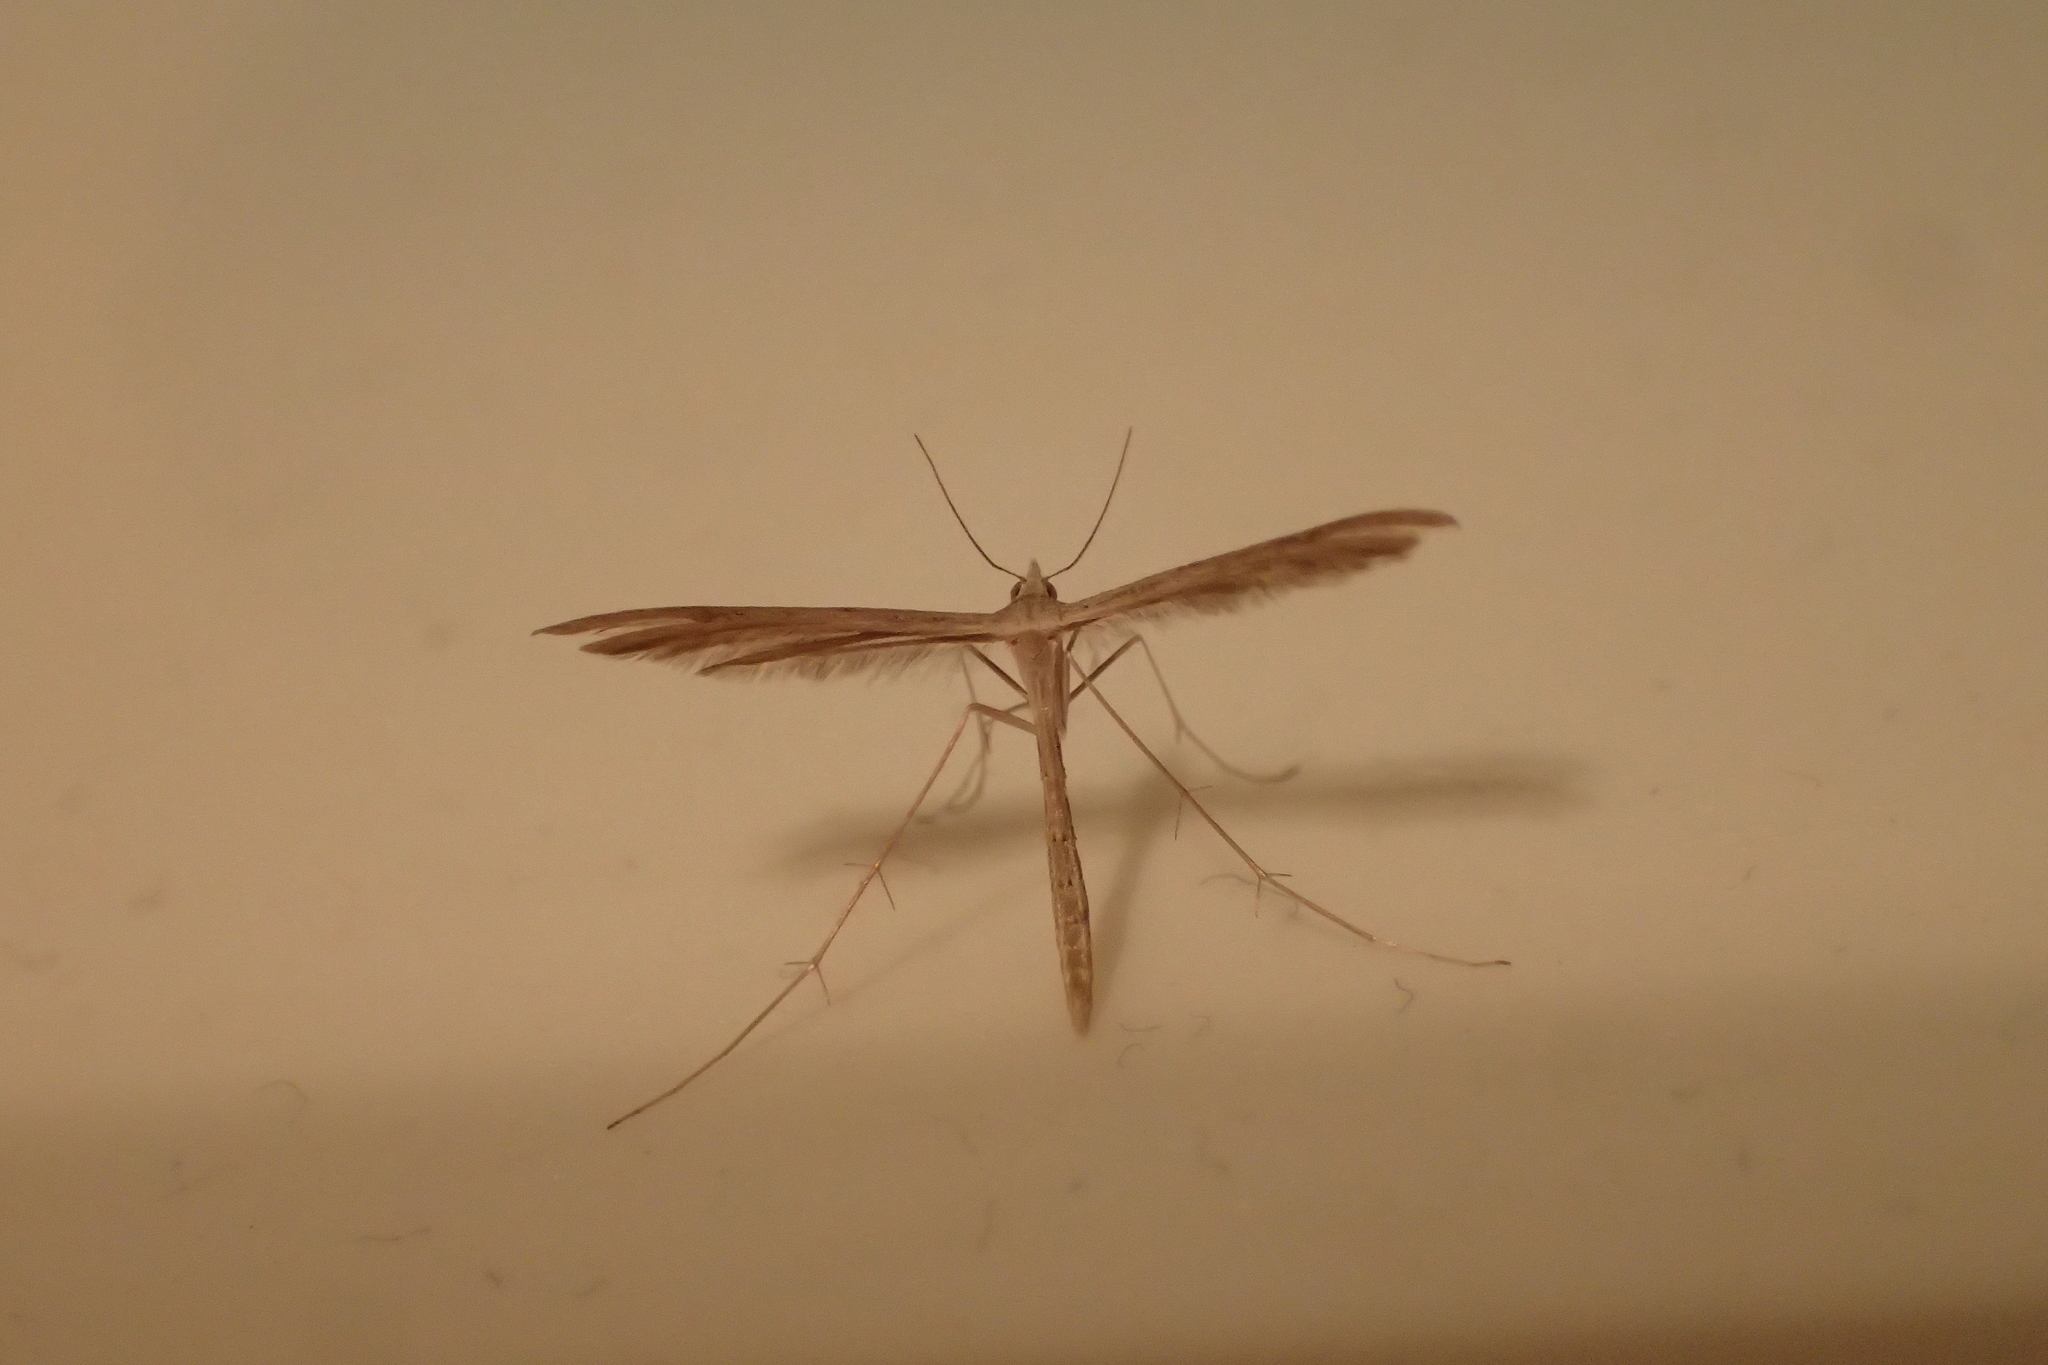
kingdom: Animalia
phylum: Arthropoda
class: Insecta
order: Lepidoptera
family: Pterophoridae
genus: Stenoptilia
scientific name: Stenoptilia zophodactylus
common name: Dowdy plume
